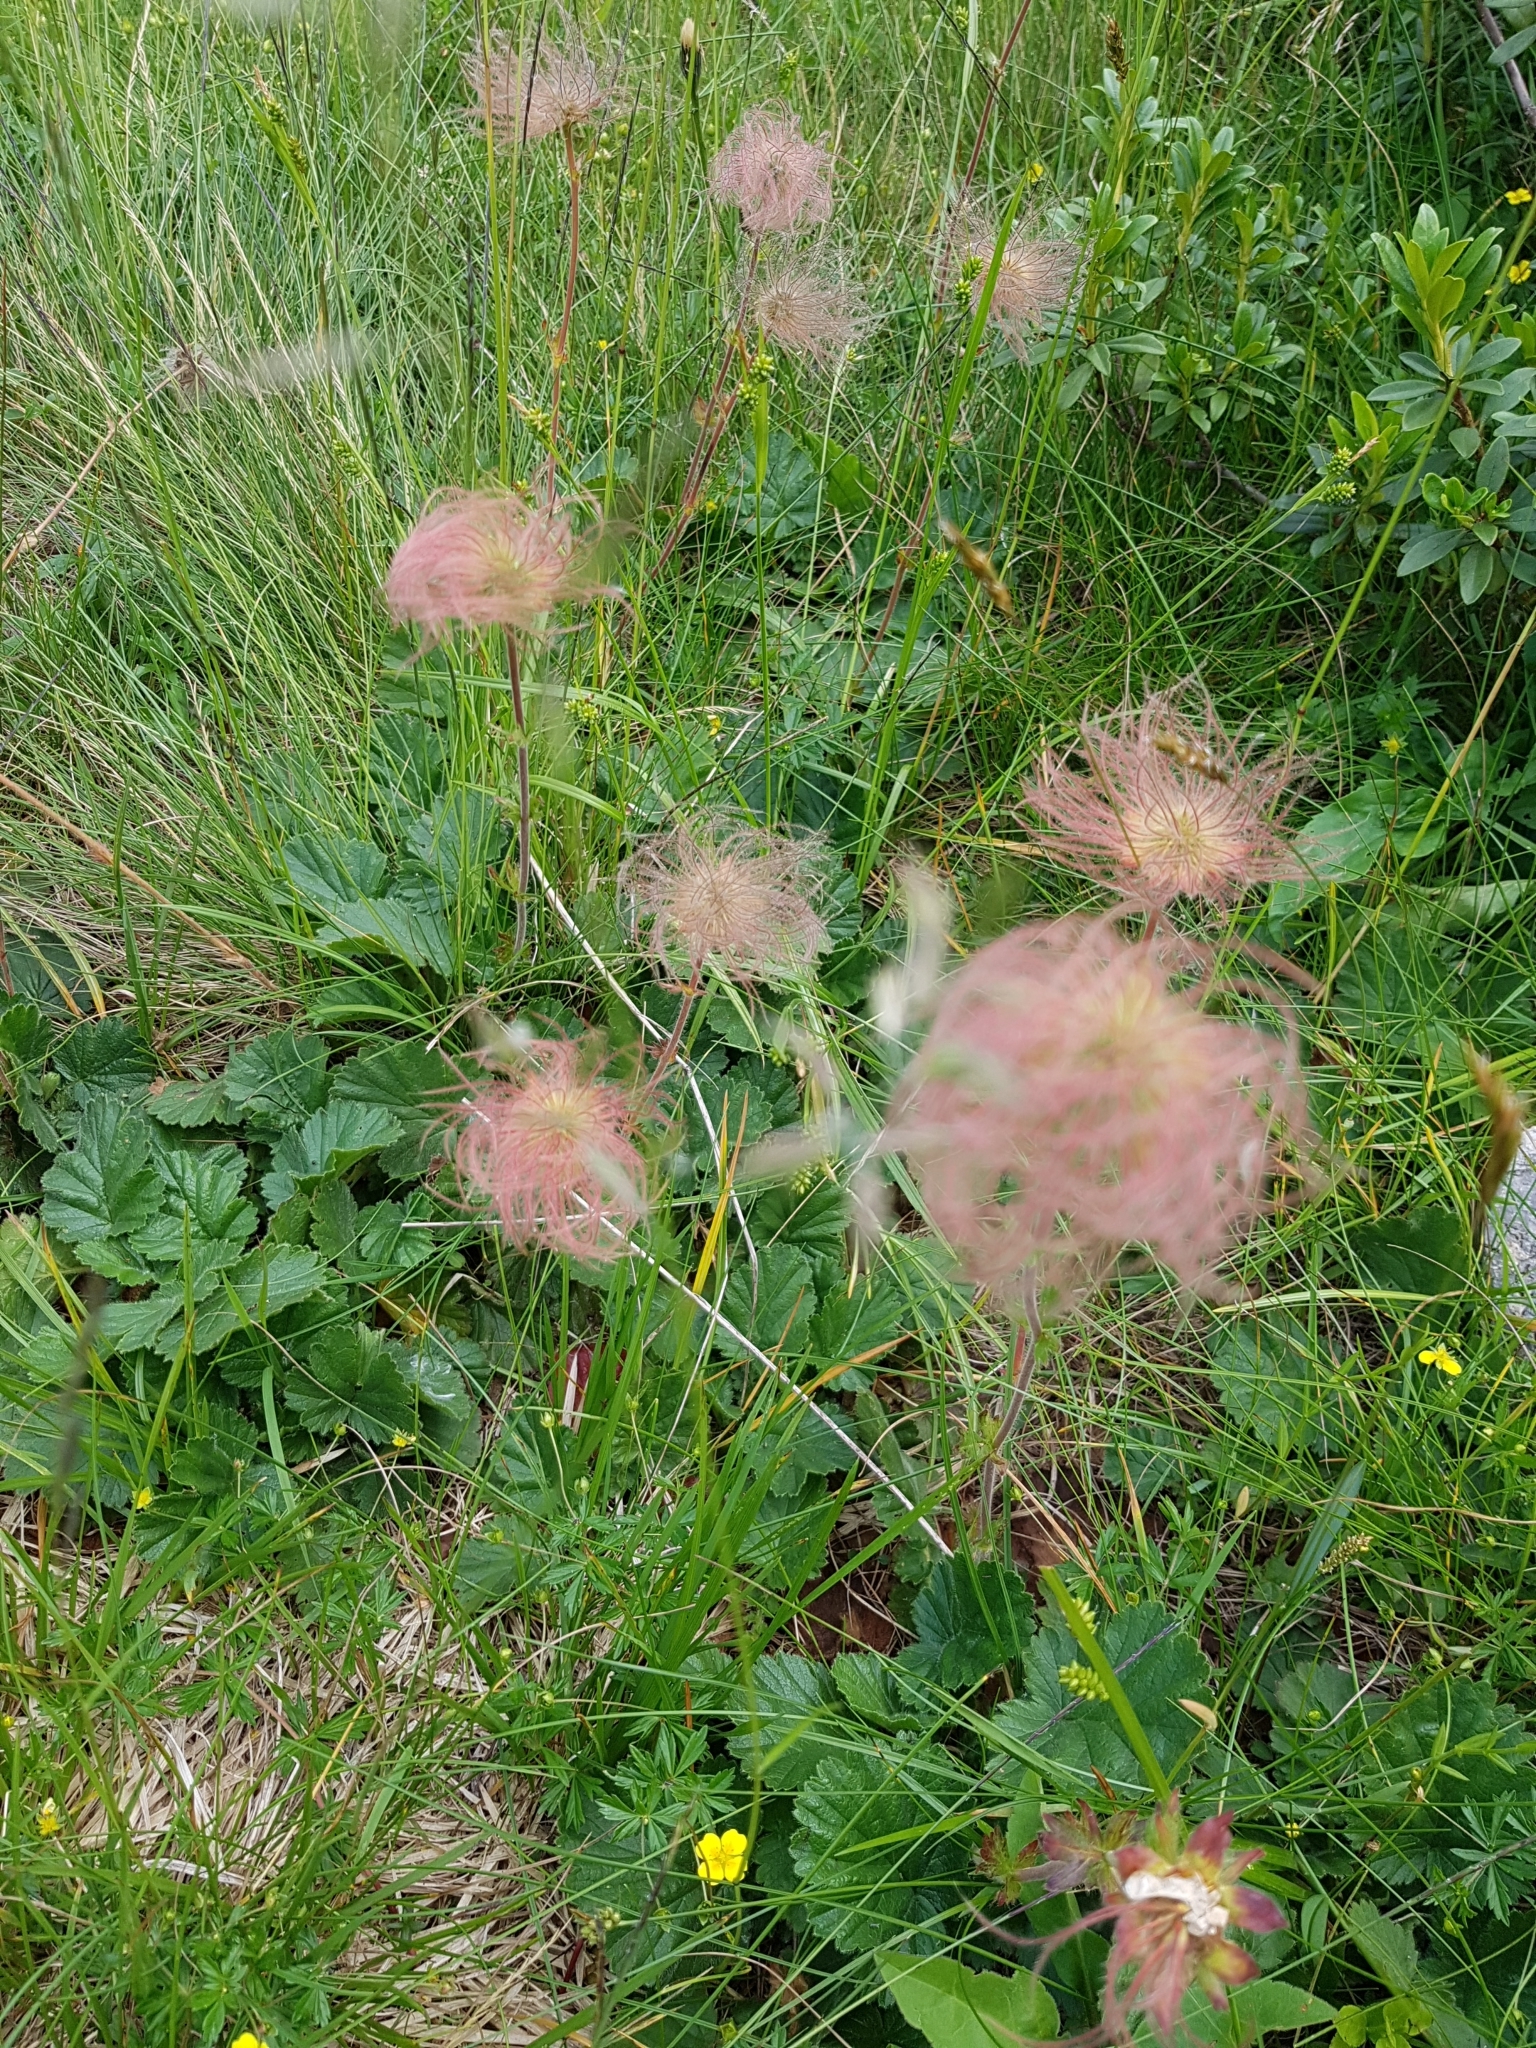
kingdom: Plantae
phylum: Tracheophyta
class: Magnoliopsida
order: Rosales
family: Rosaceae
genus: Geum
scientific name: Geum montanum
